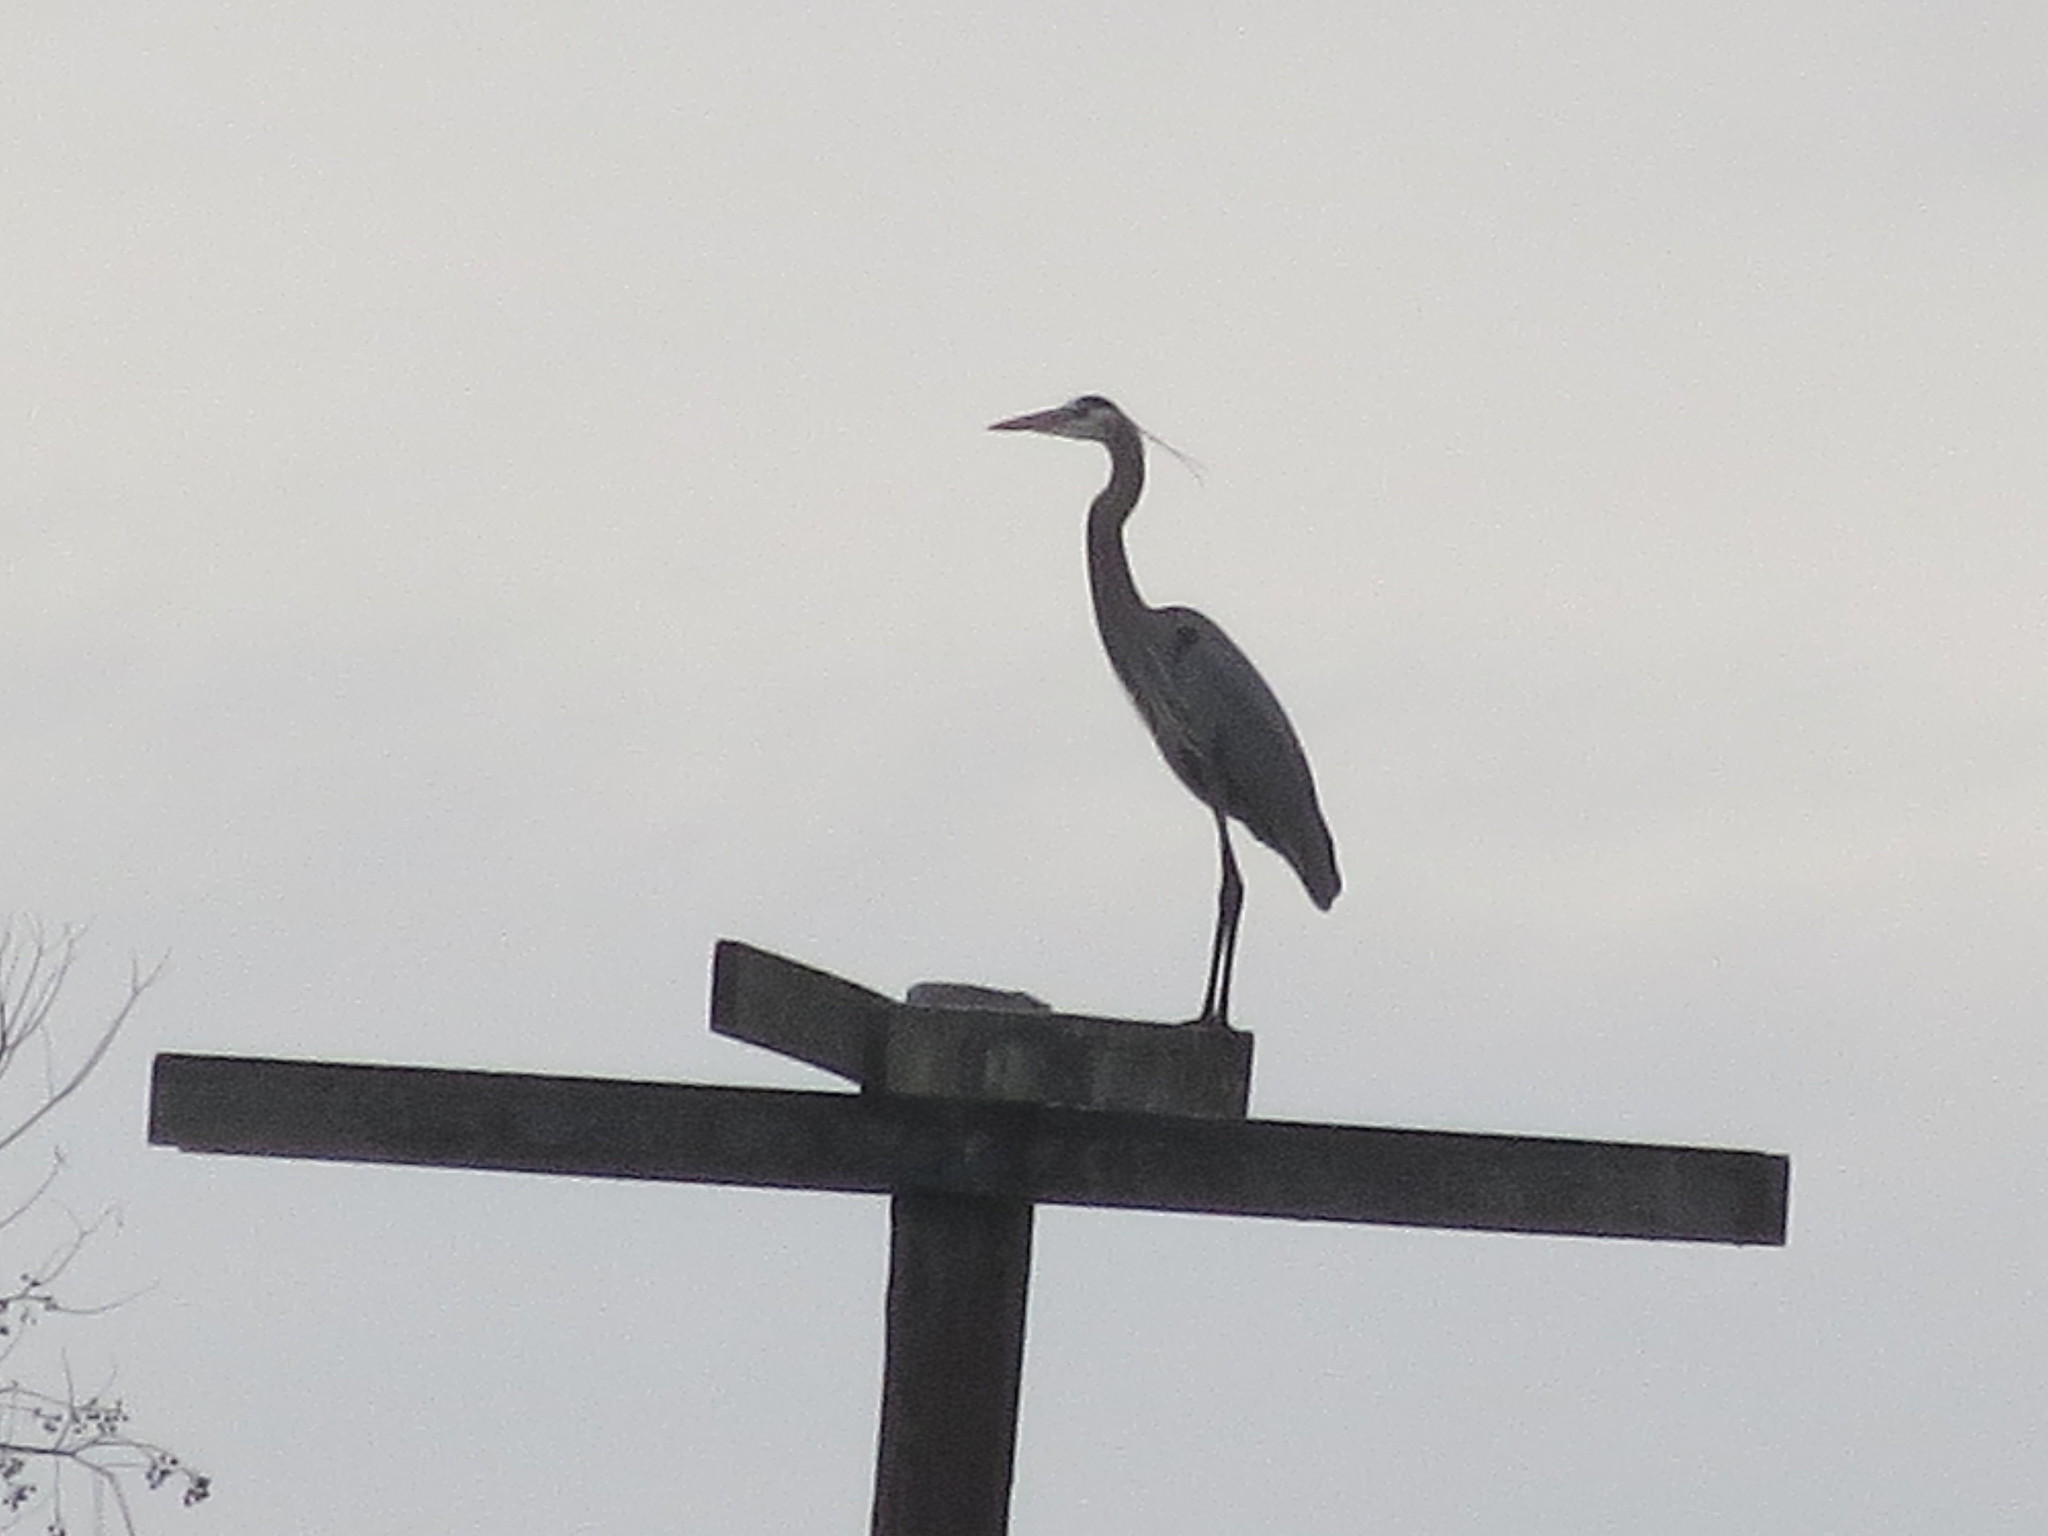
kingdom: Animalia
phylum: Chordata
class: Aves
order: Pelecaniformes
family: Ardeidae
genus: Ardea
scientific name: Ardea herodias
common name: Great blue heron
